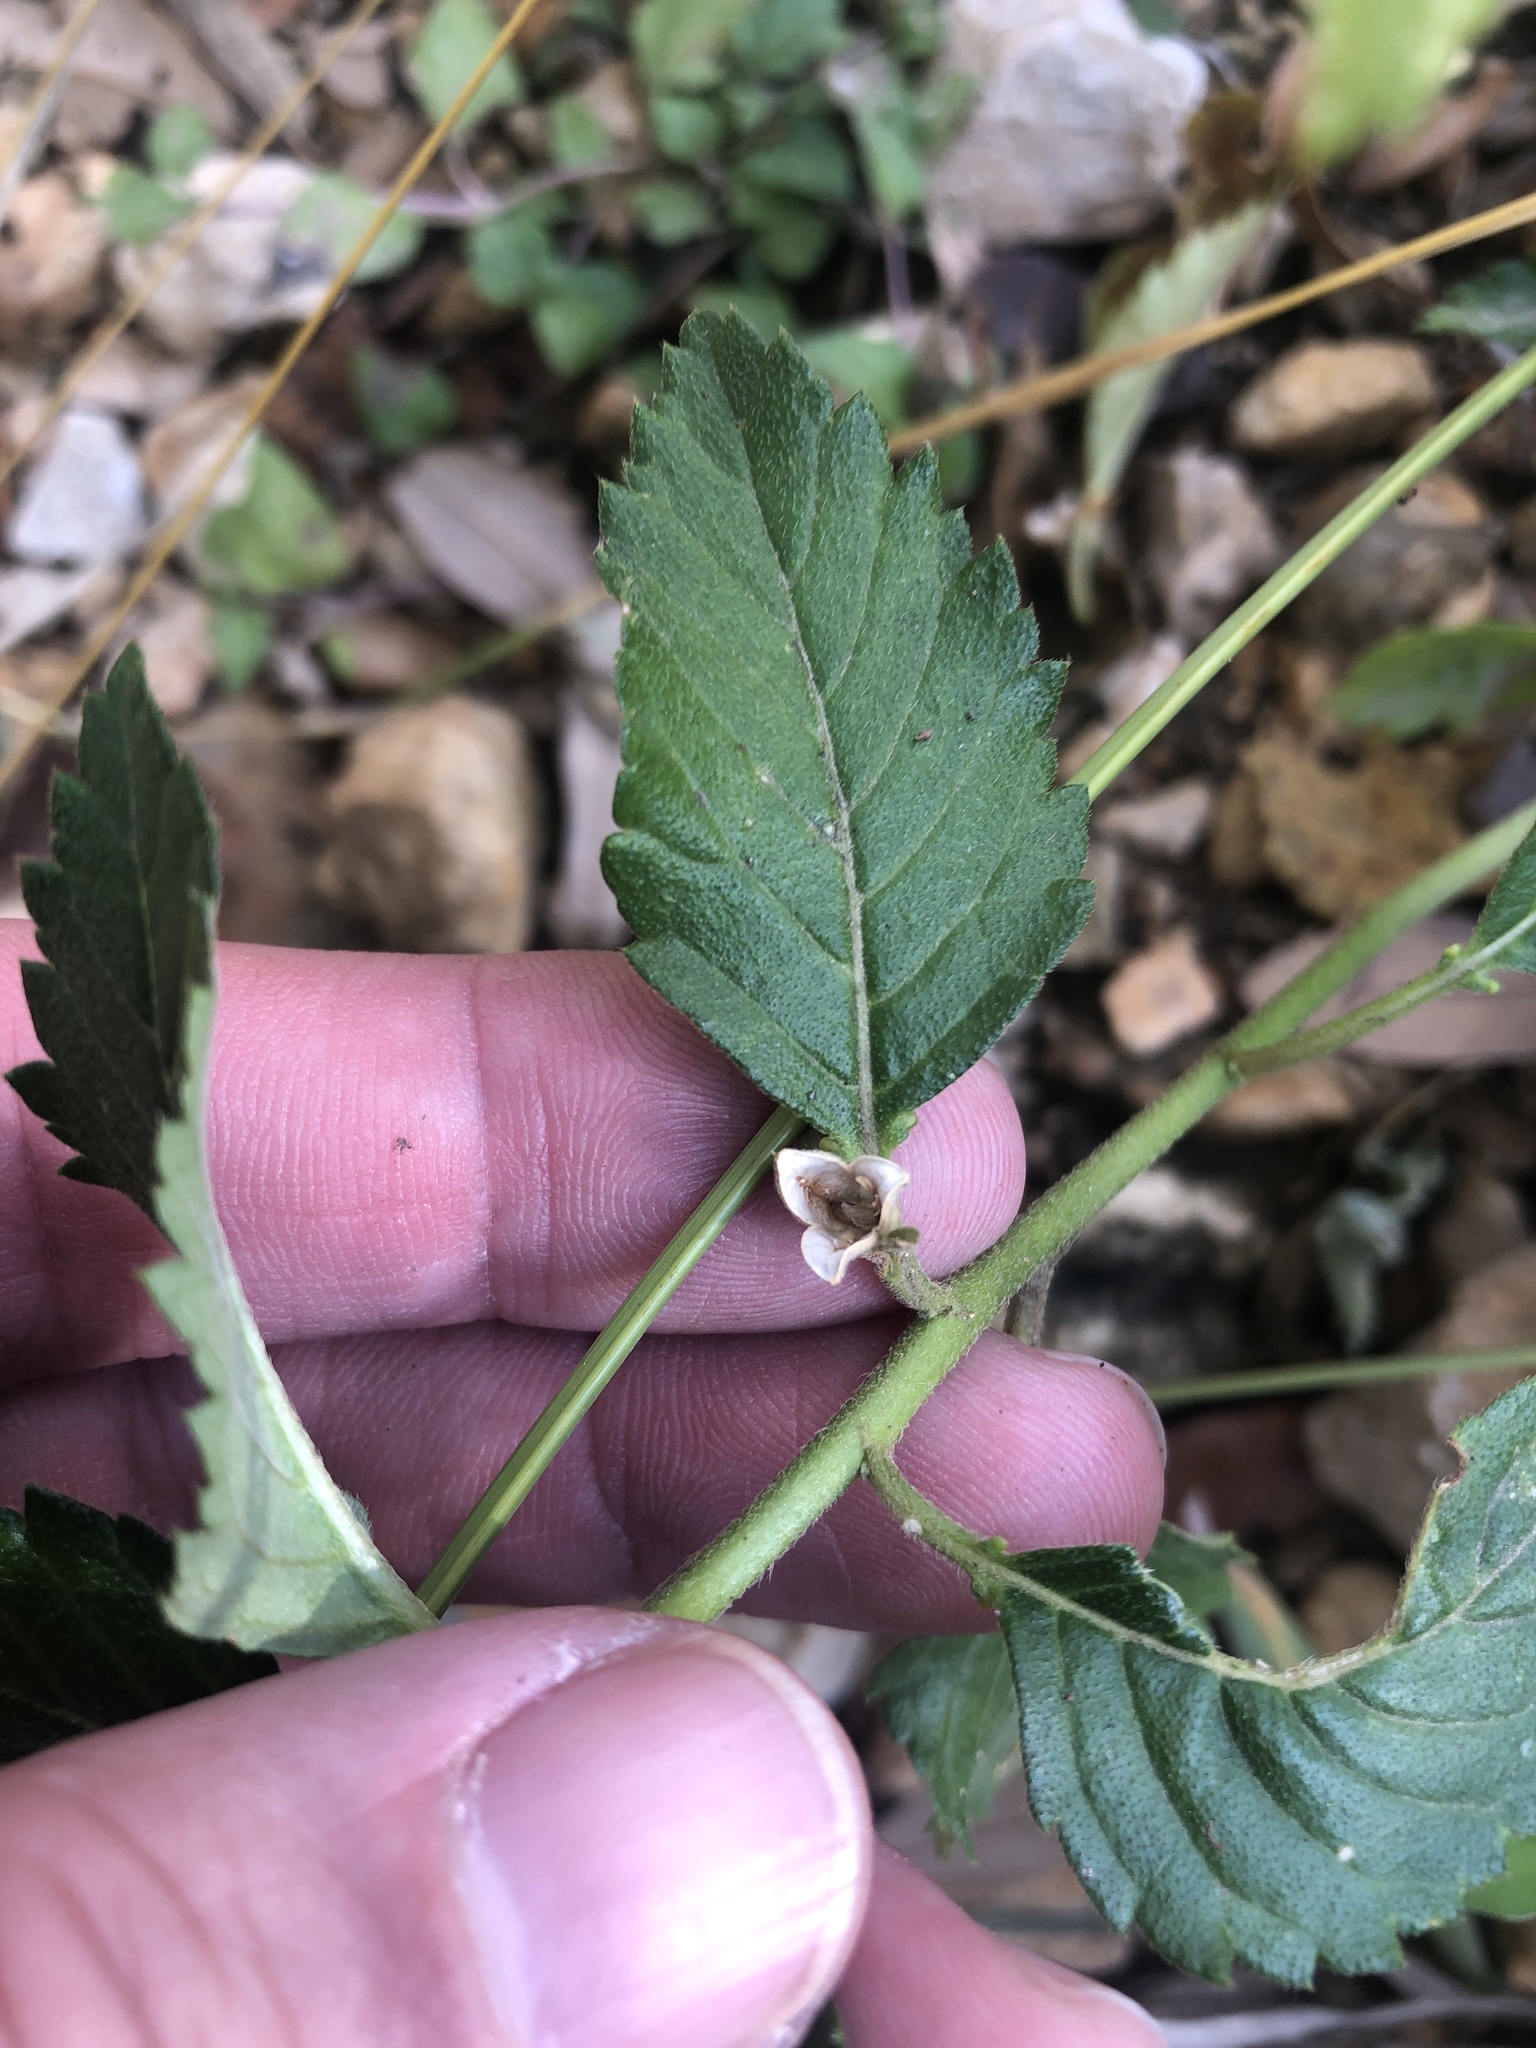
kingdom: Plantae
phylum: Tracheophyta
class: Magnoliopsida
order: Malpighiales
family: Turneraceae
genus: Turnera
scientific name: Turnera ulmifolia
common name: Ramgoat dashalong
